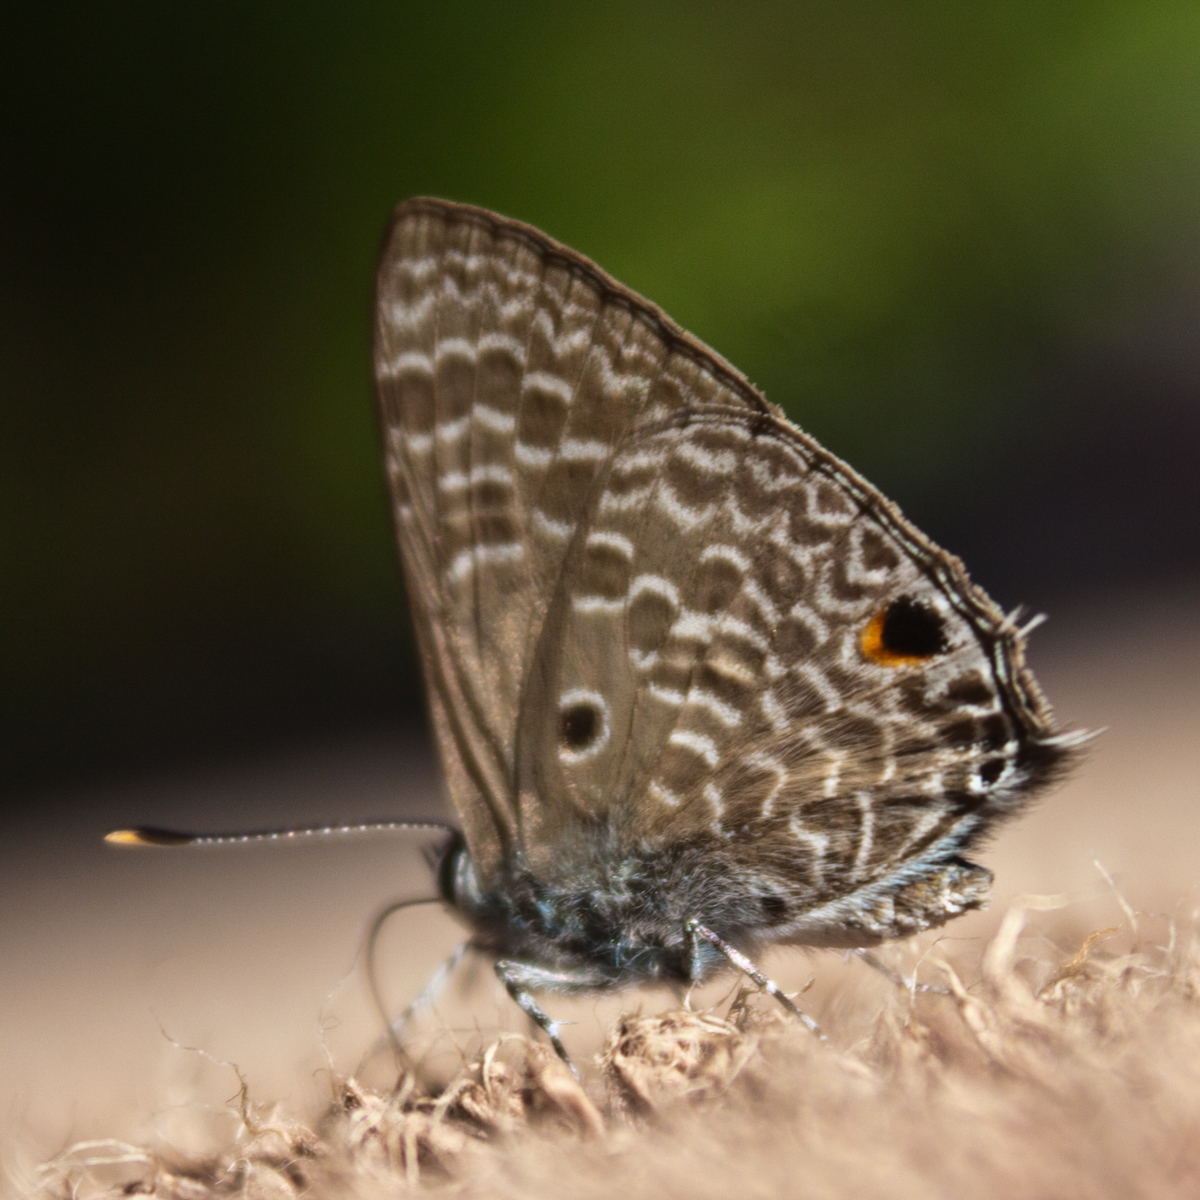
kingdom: Animalia
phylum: Arthropoda
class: Insecta
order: Lepidoptera
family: Lycaenidae
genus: Anthene
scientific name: Anthene lycaenina
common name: Pointed ciliate blue
